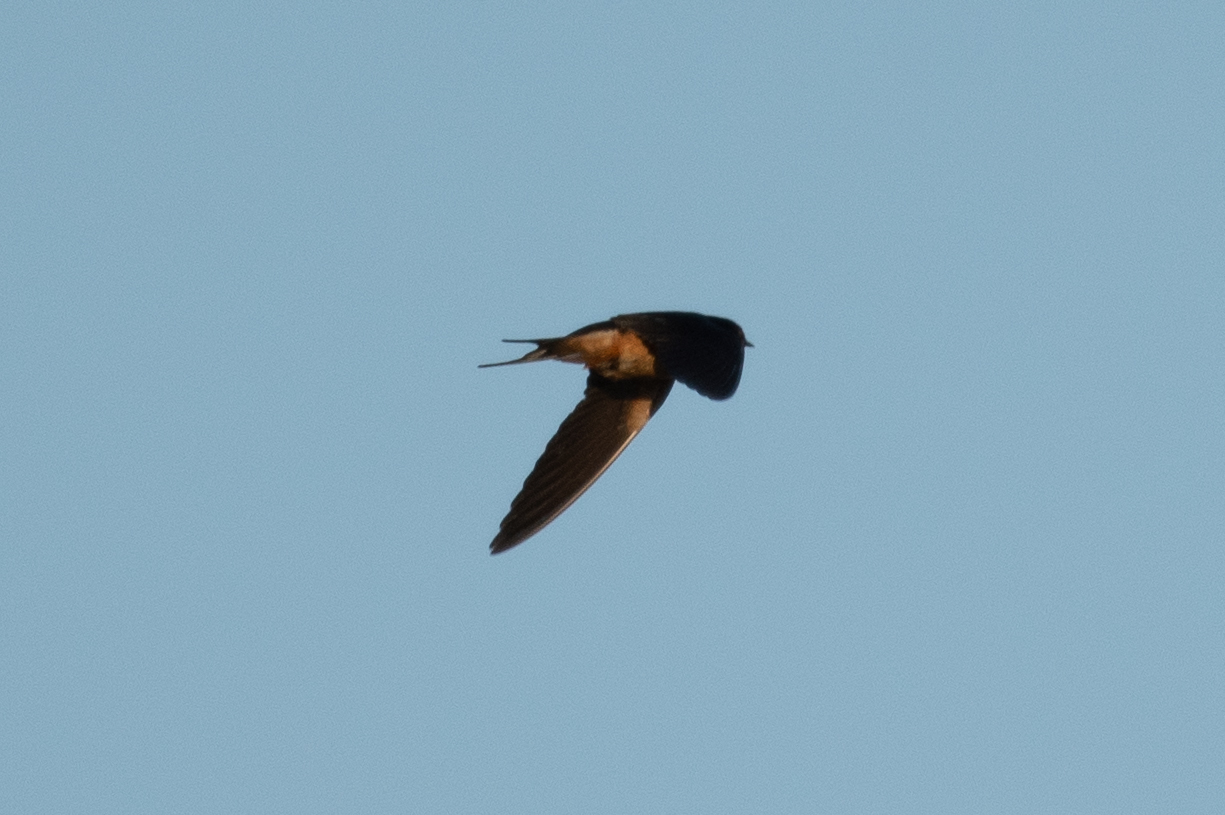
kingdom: Animalia
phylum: Chordata
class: Aves
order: Passeriformes
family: Hirundinidae
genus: Hirundo
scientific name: Hirundo rustica
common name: Barn swallow
